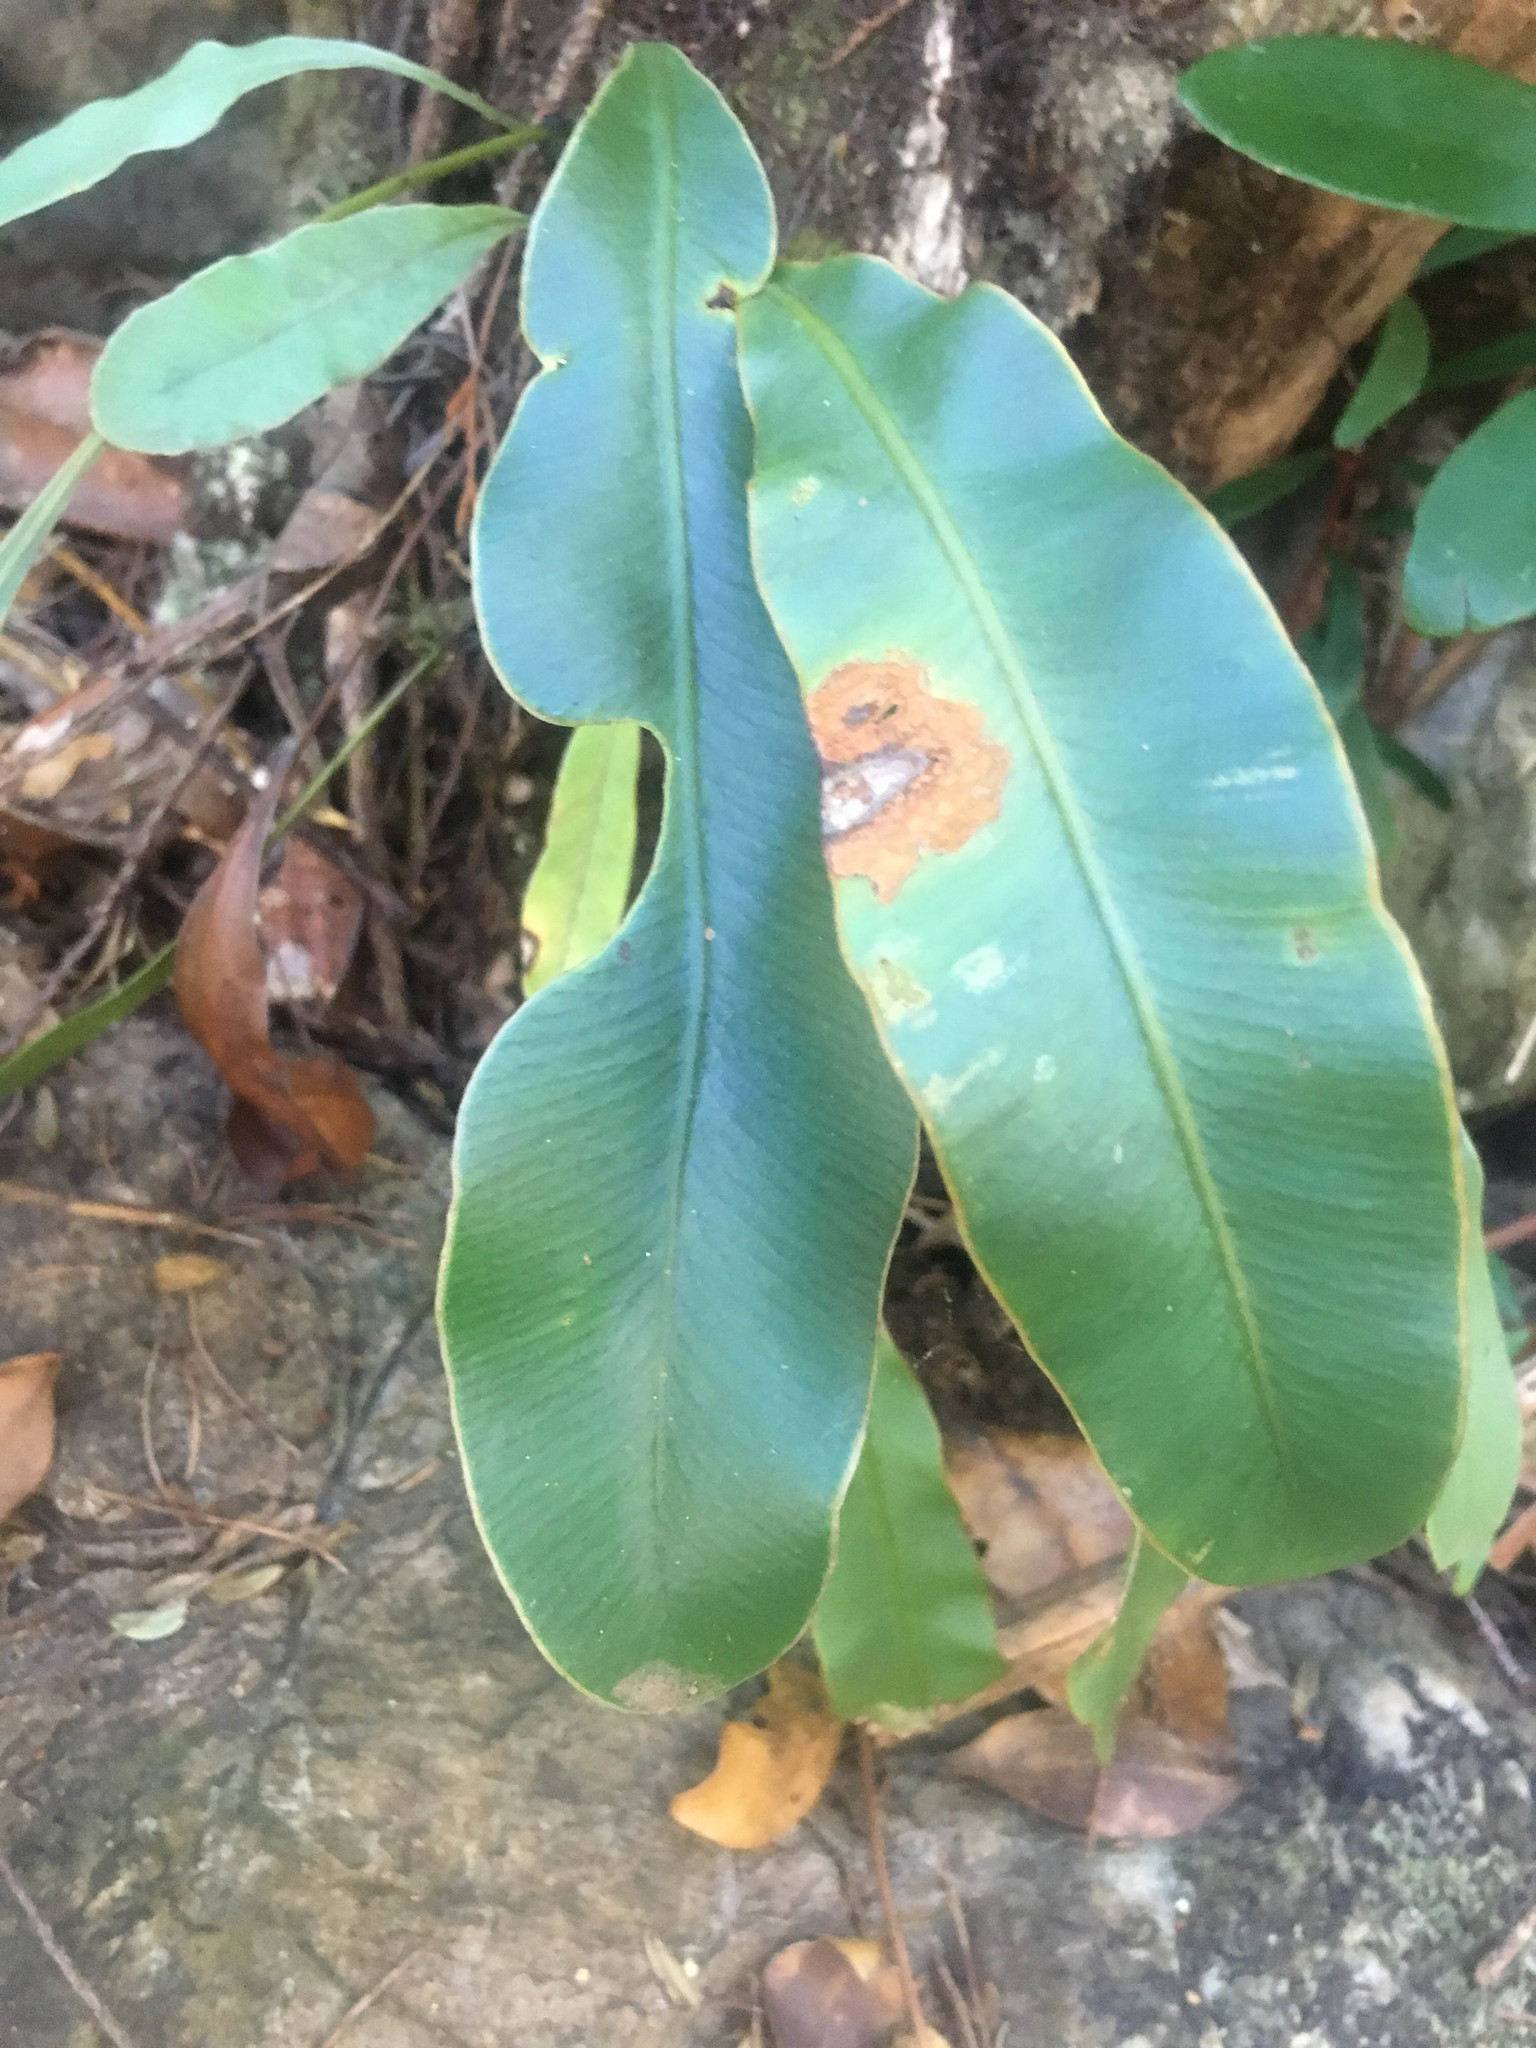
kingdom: Plantae
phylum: Tracheophyta
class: Polypodiopsida
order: Polypodiales
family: Dryopteridaceae
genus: Elaphoglossum
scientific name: Elaphoglossum vieillardii
